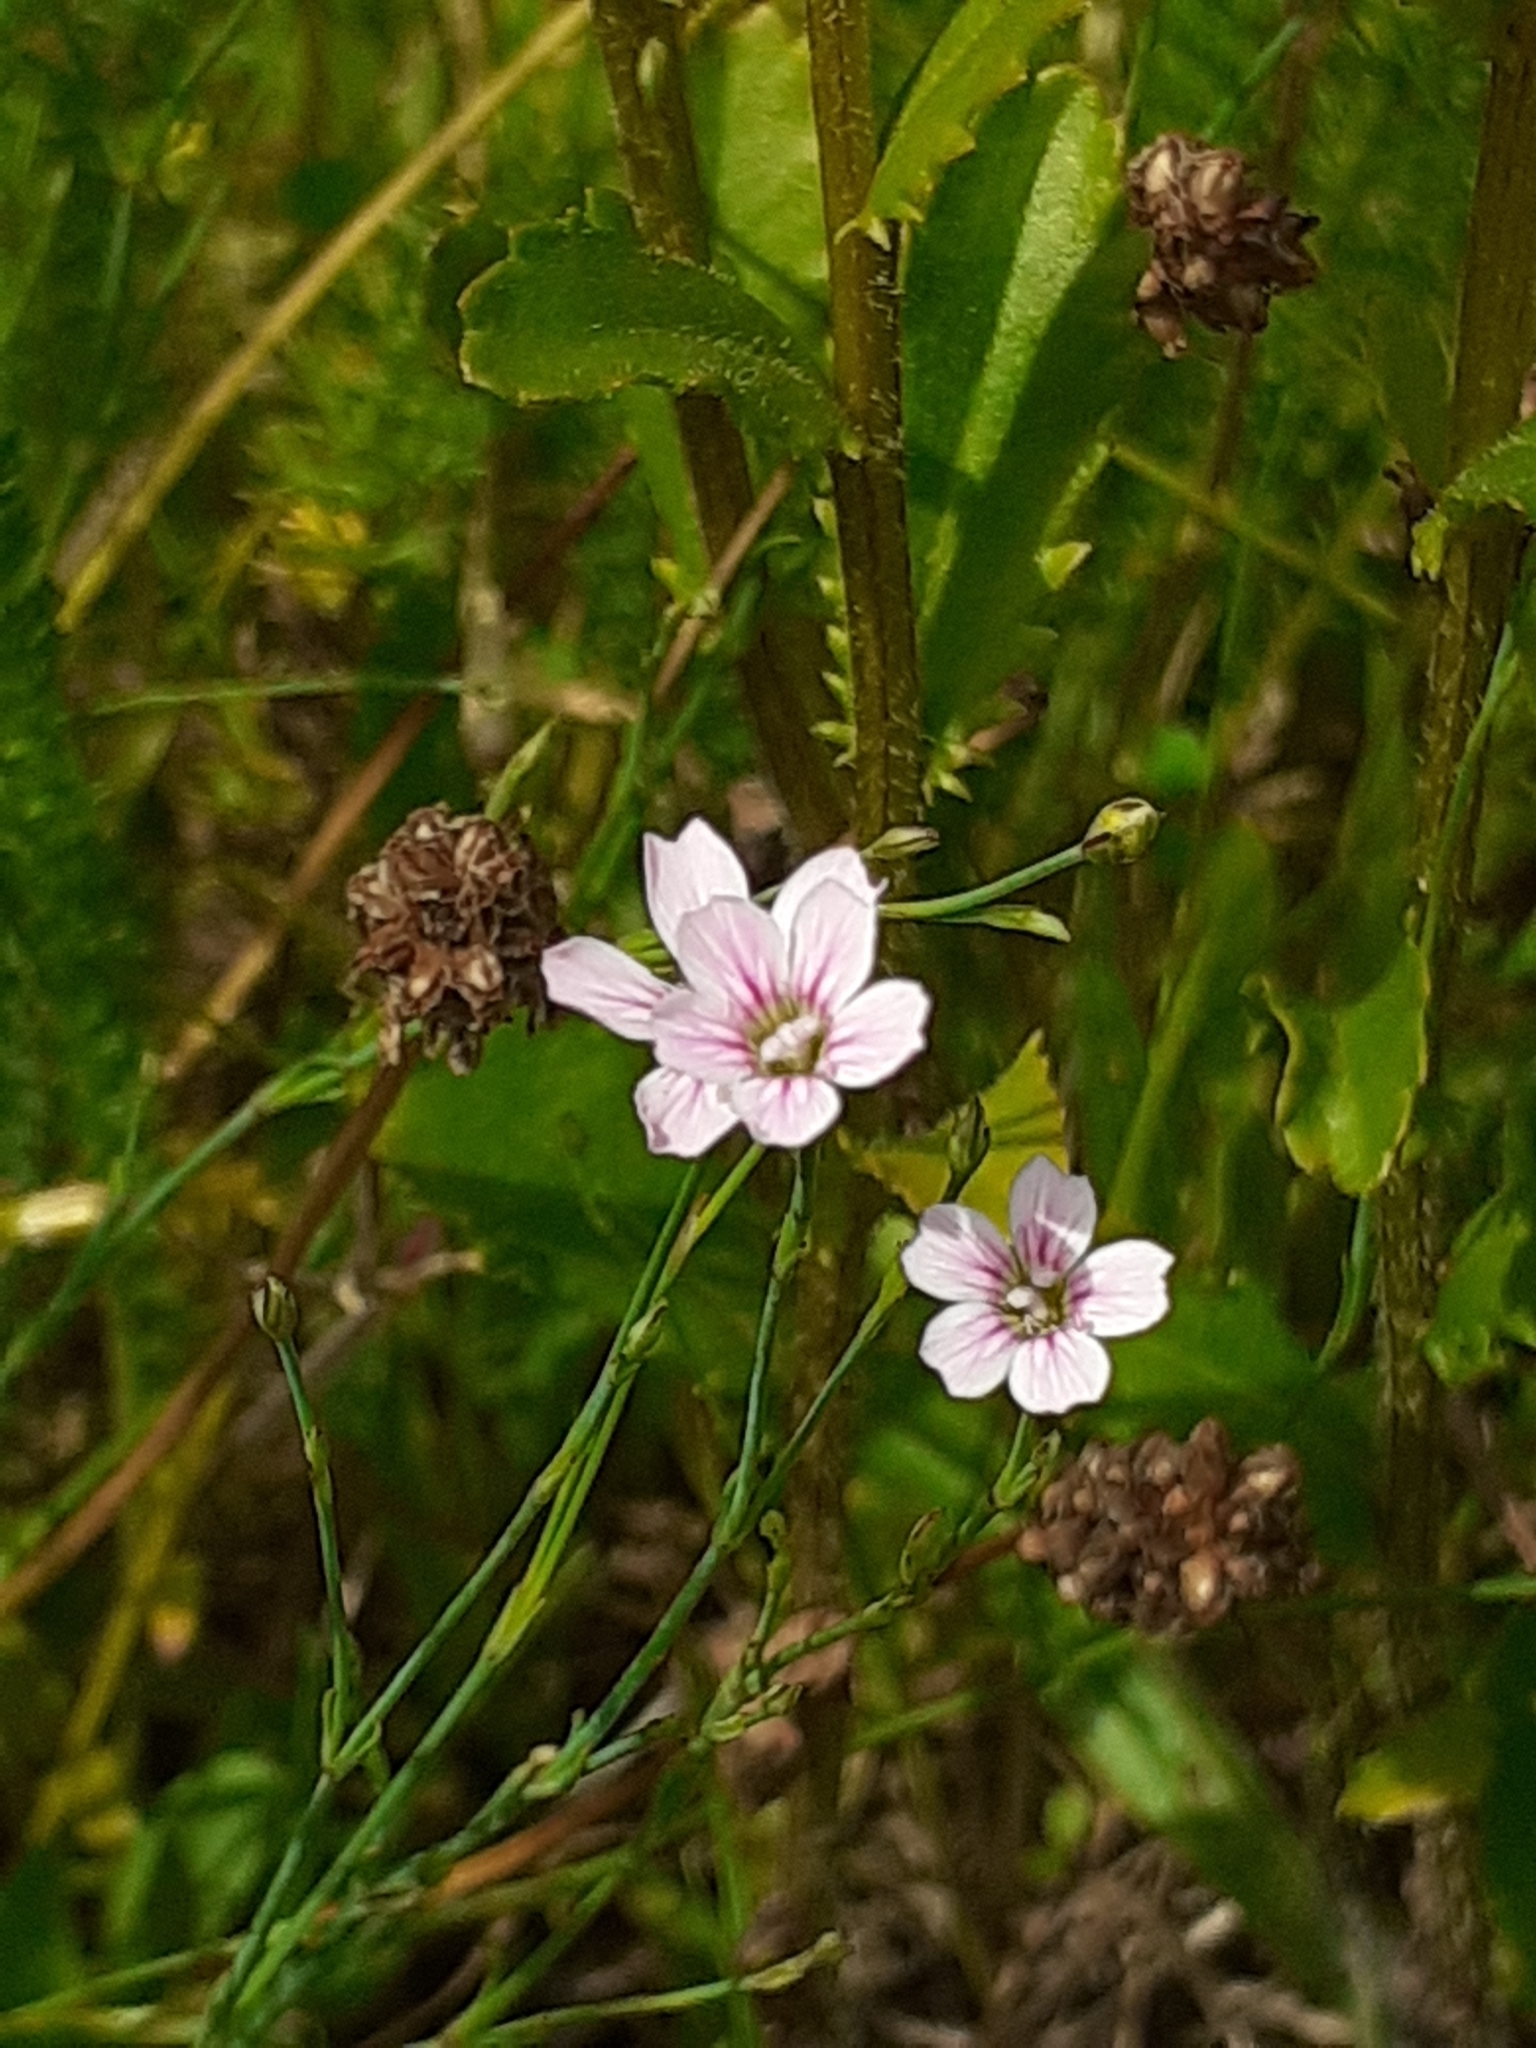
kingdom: Plantae
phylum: Tracheophyta
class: Magnoliopsida
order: Caryophyllales
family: Caryophyllaceae
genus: Petrorhagia
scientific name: Petrorhagia saxifraga
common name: Tunicflower
